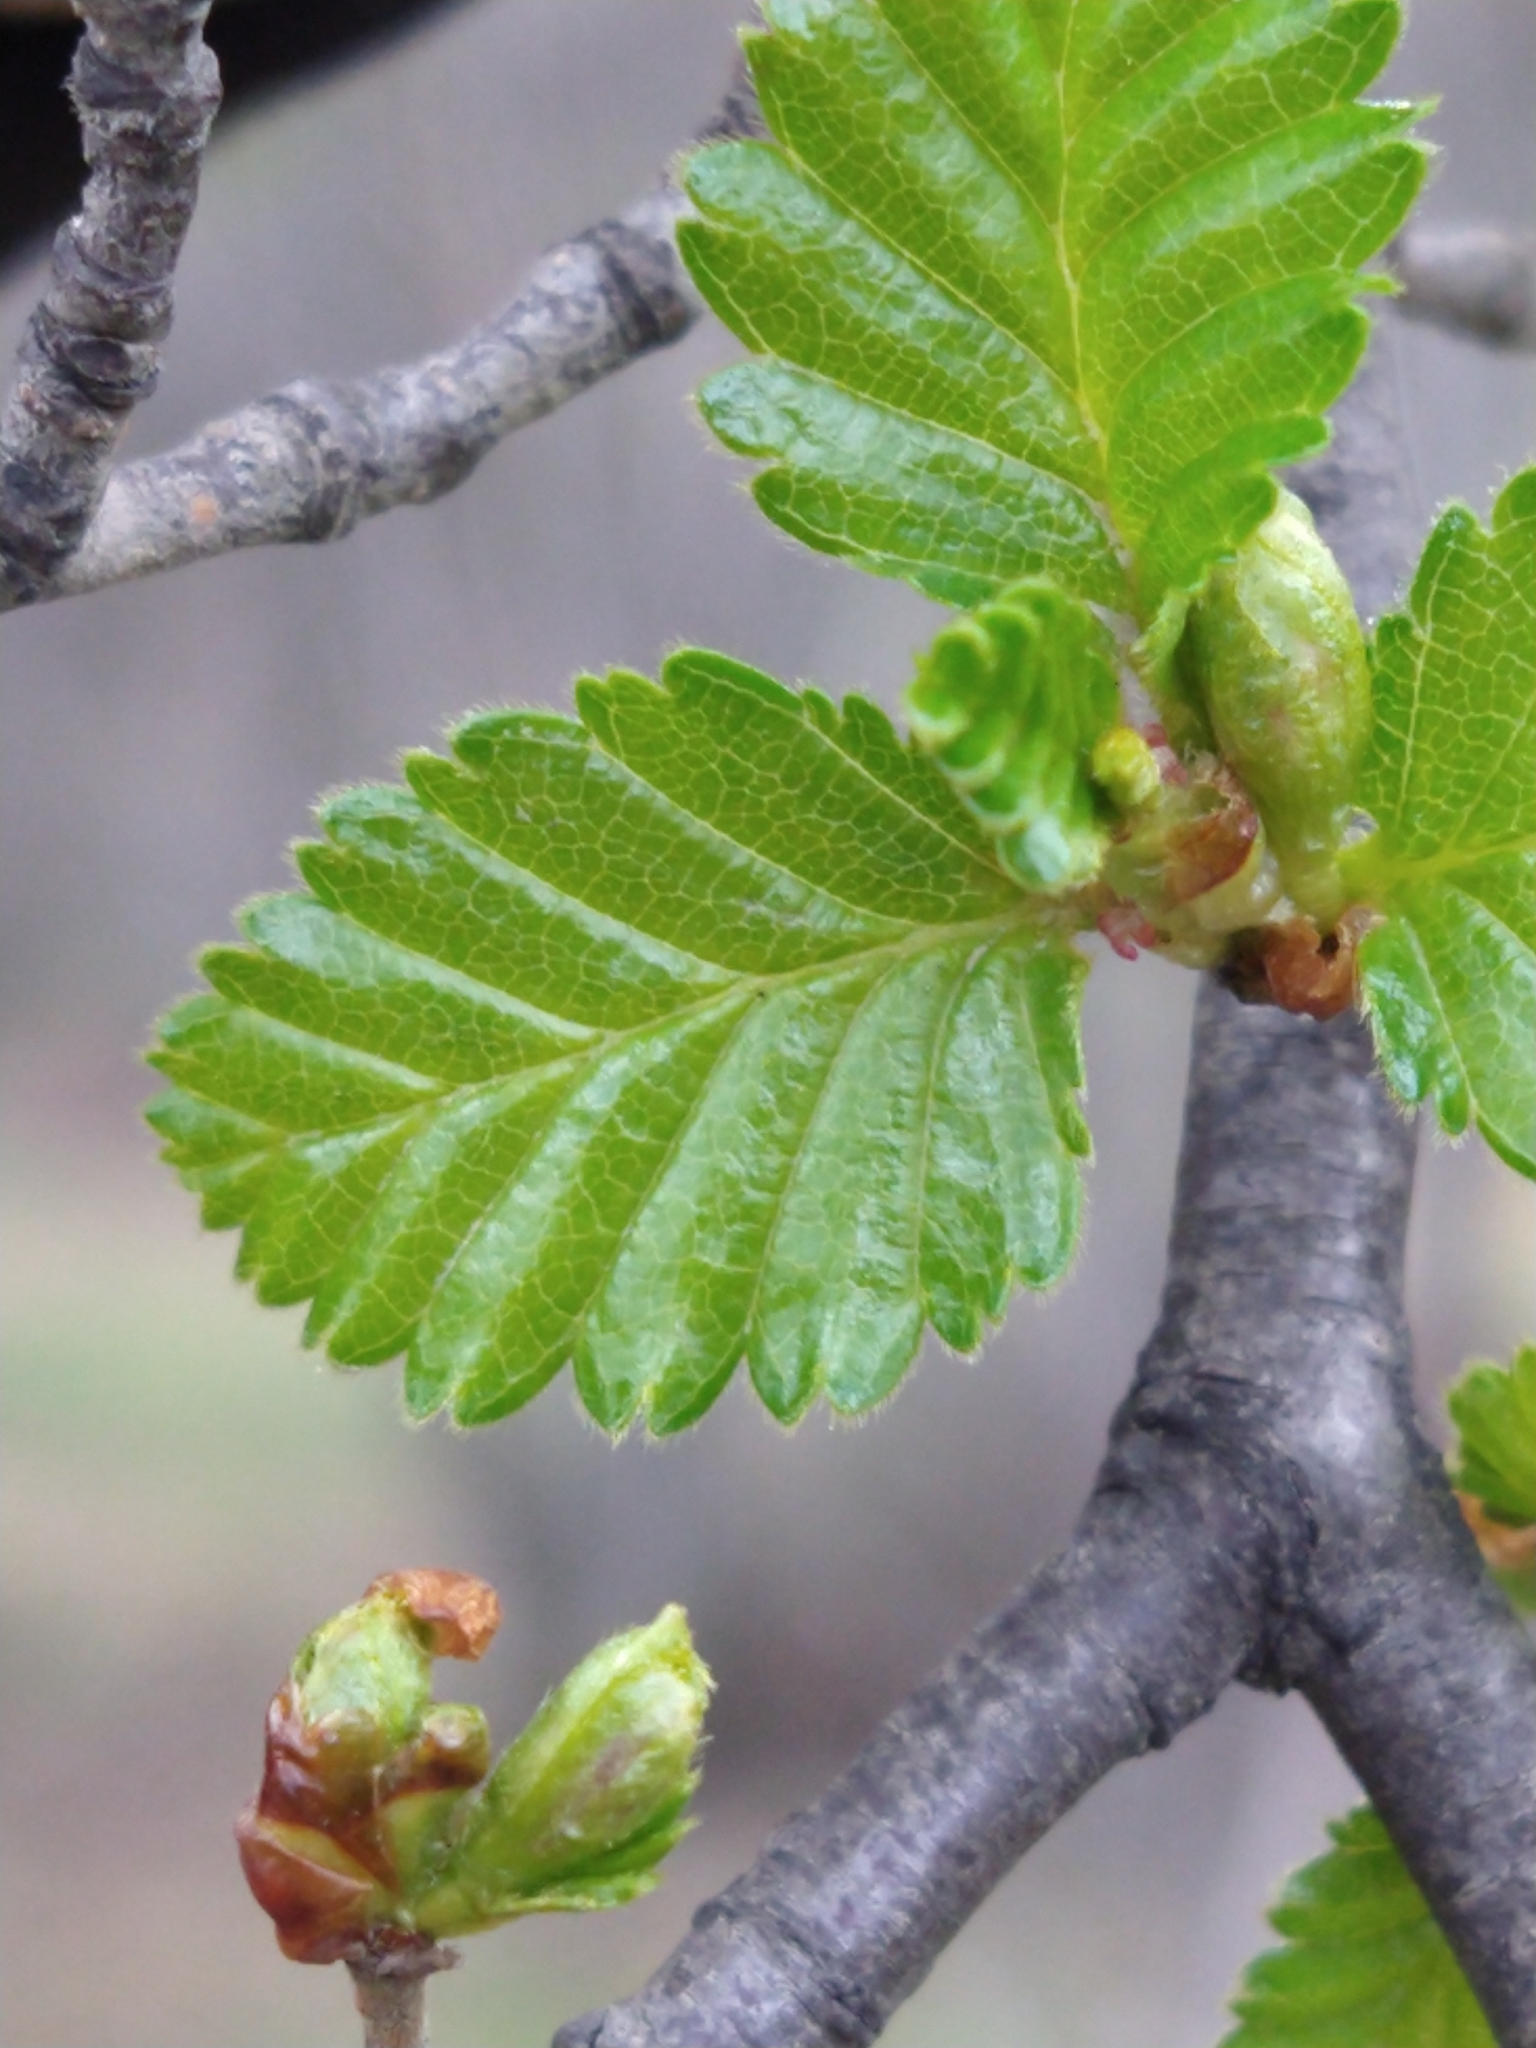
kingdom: Plantae
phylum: Tracheophyta
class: Magnoliopsida
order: Fagales
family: Nothofagaceae
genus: Nothofagus
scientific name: Nothofagus pumilio
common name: Lenga beech
